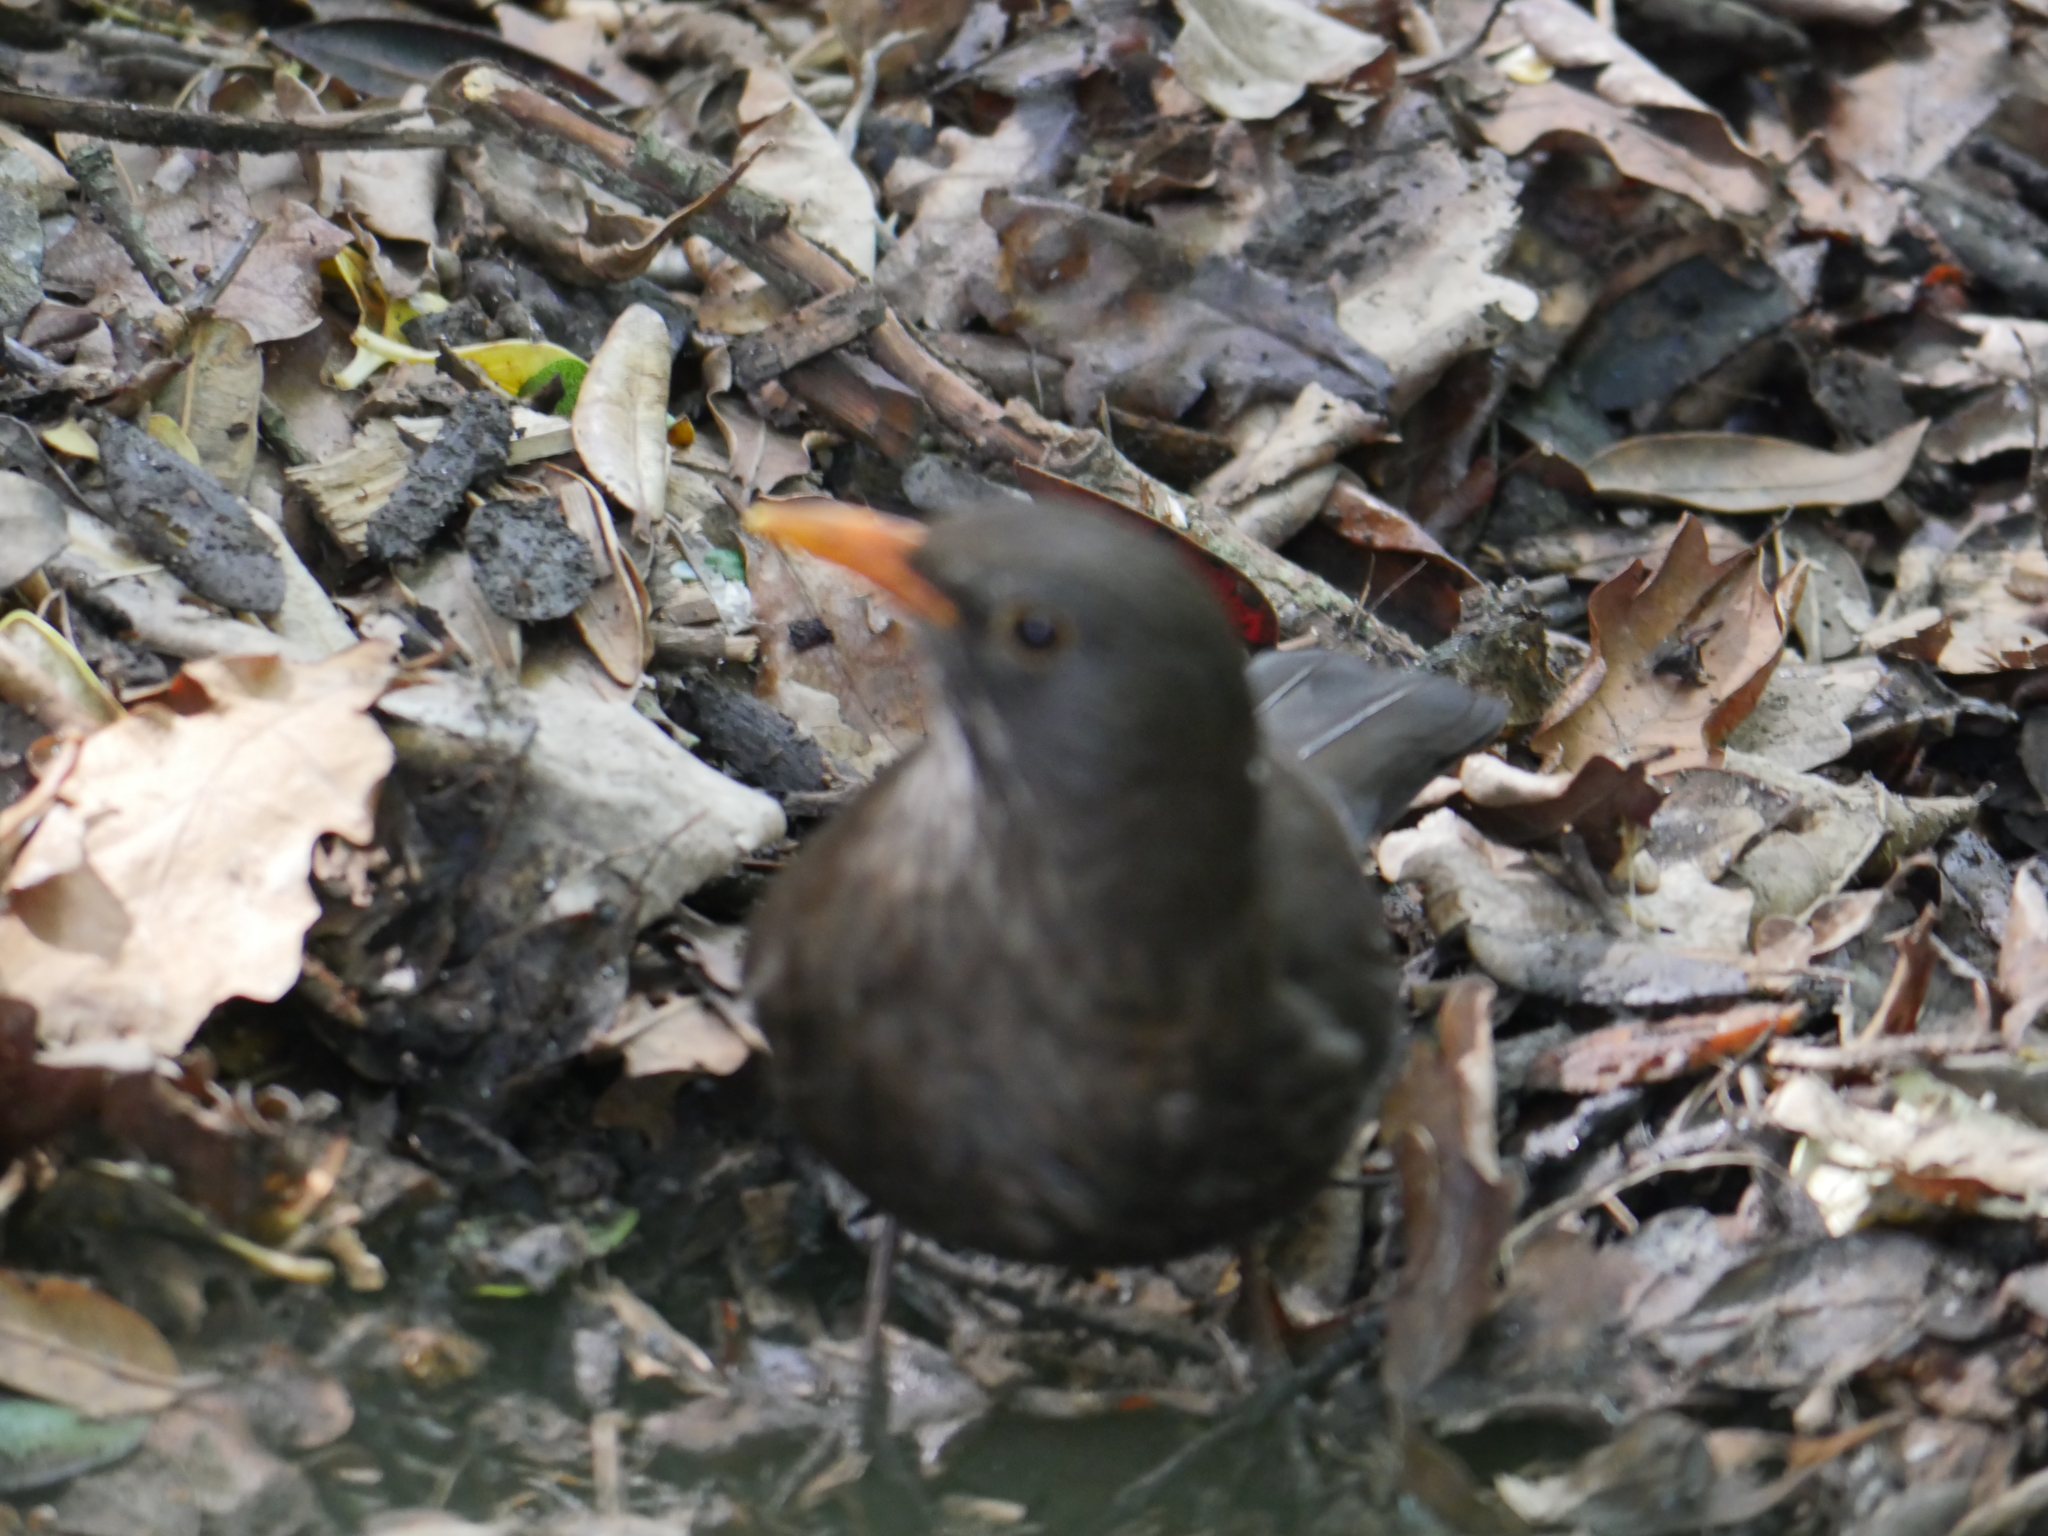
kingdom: Animalia
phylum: Chordata
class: Aves
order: Passeriformes
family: Turdidae
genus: Turdus
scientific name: Turdus merula
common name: Common blackbird
